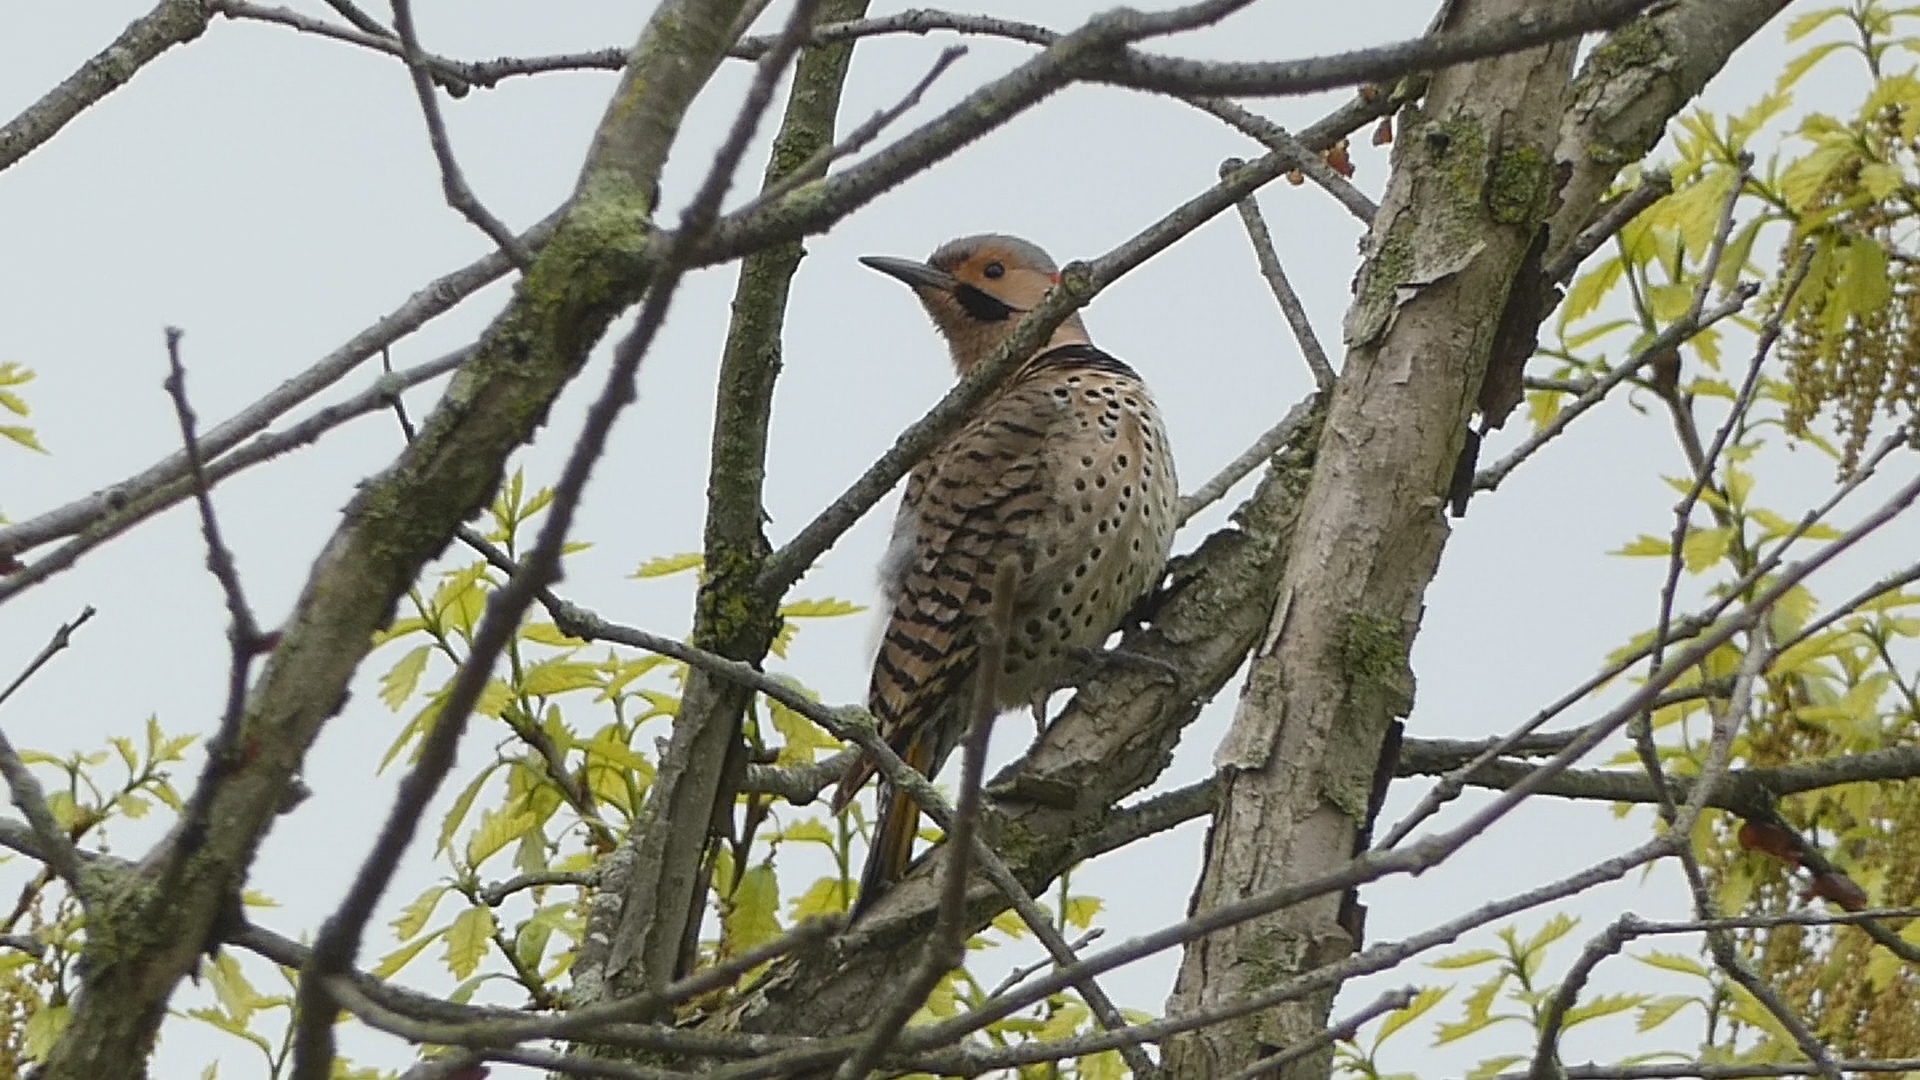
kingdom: Animalia
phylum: Chordata
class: Aves
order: Piciformes
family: Picidae
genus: Colaptes
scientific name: Colaptes auratus
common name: Northern flicker
